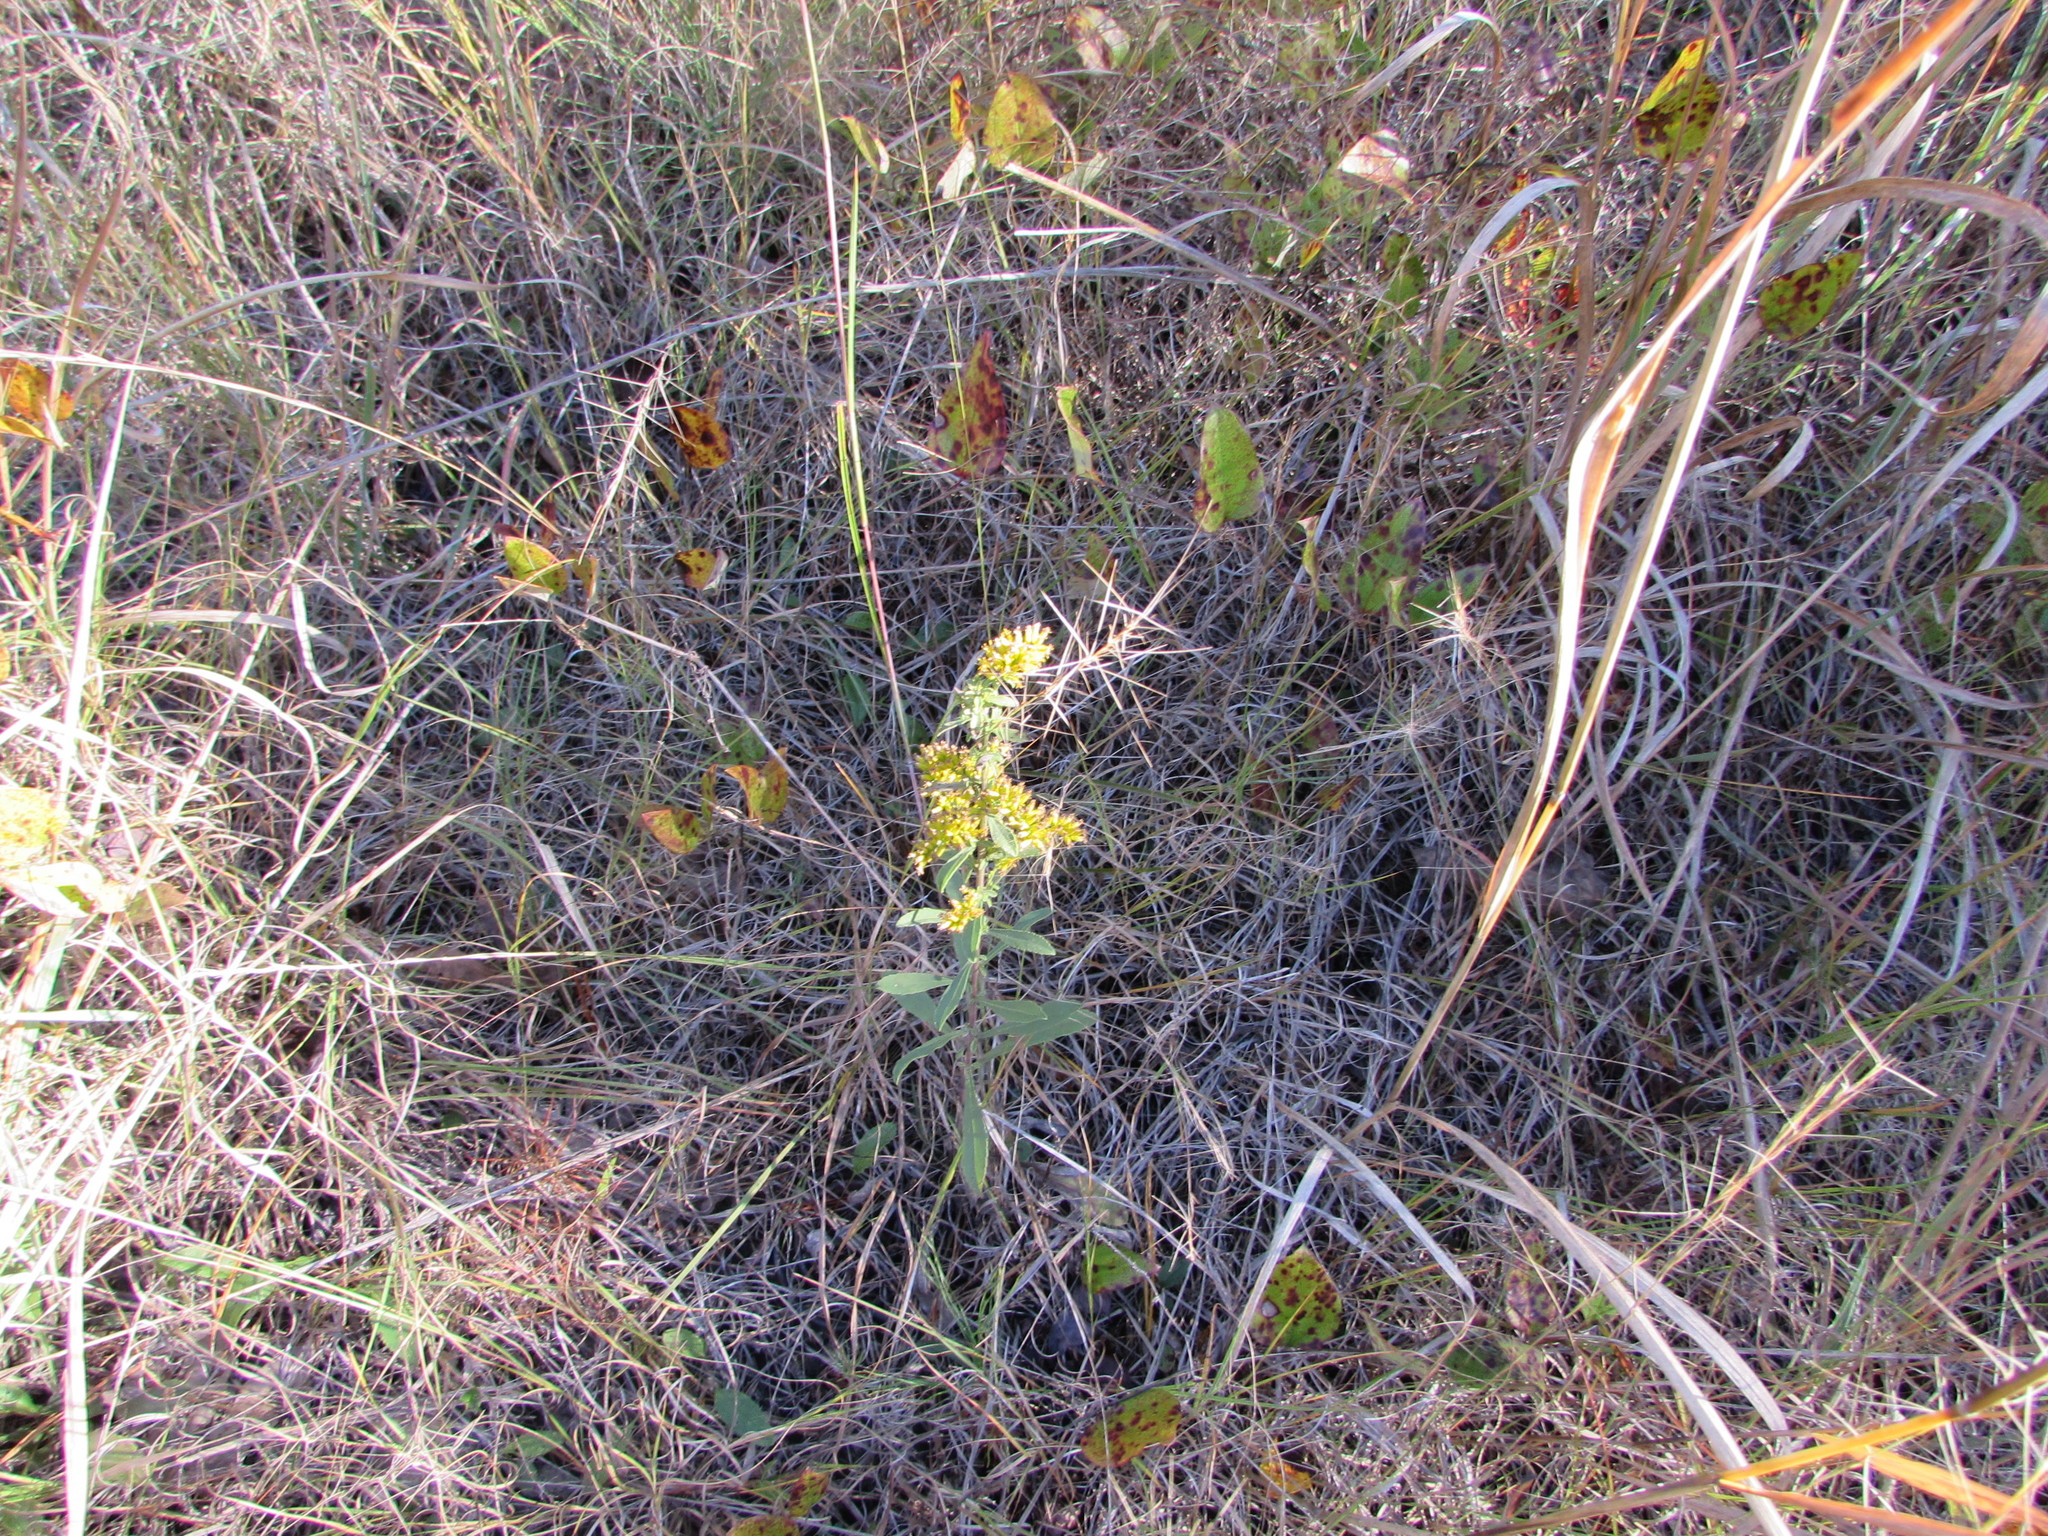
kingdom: Plantae
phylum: Tracheophyta
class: Magnoliopsida
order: Asterales
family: Asteraceae
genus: Solidago
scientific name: Solidago nemoralis
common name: Grey goldenrod
